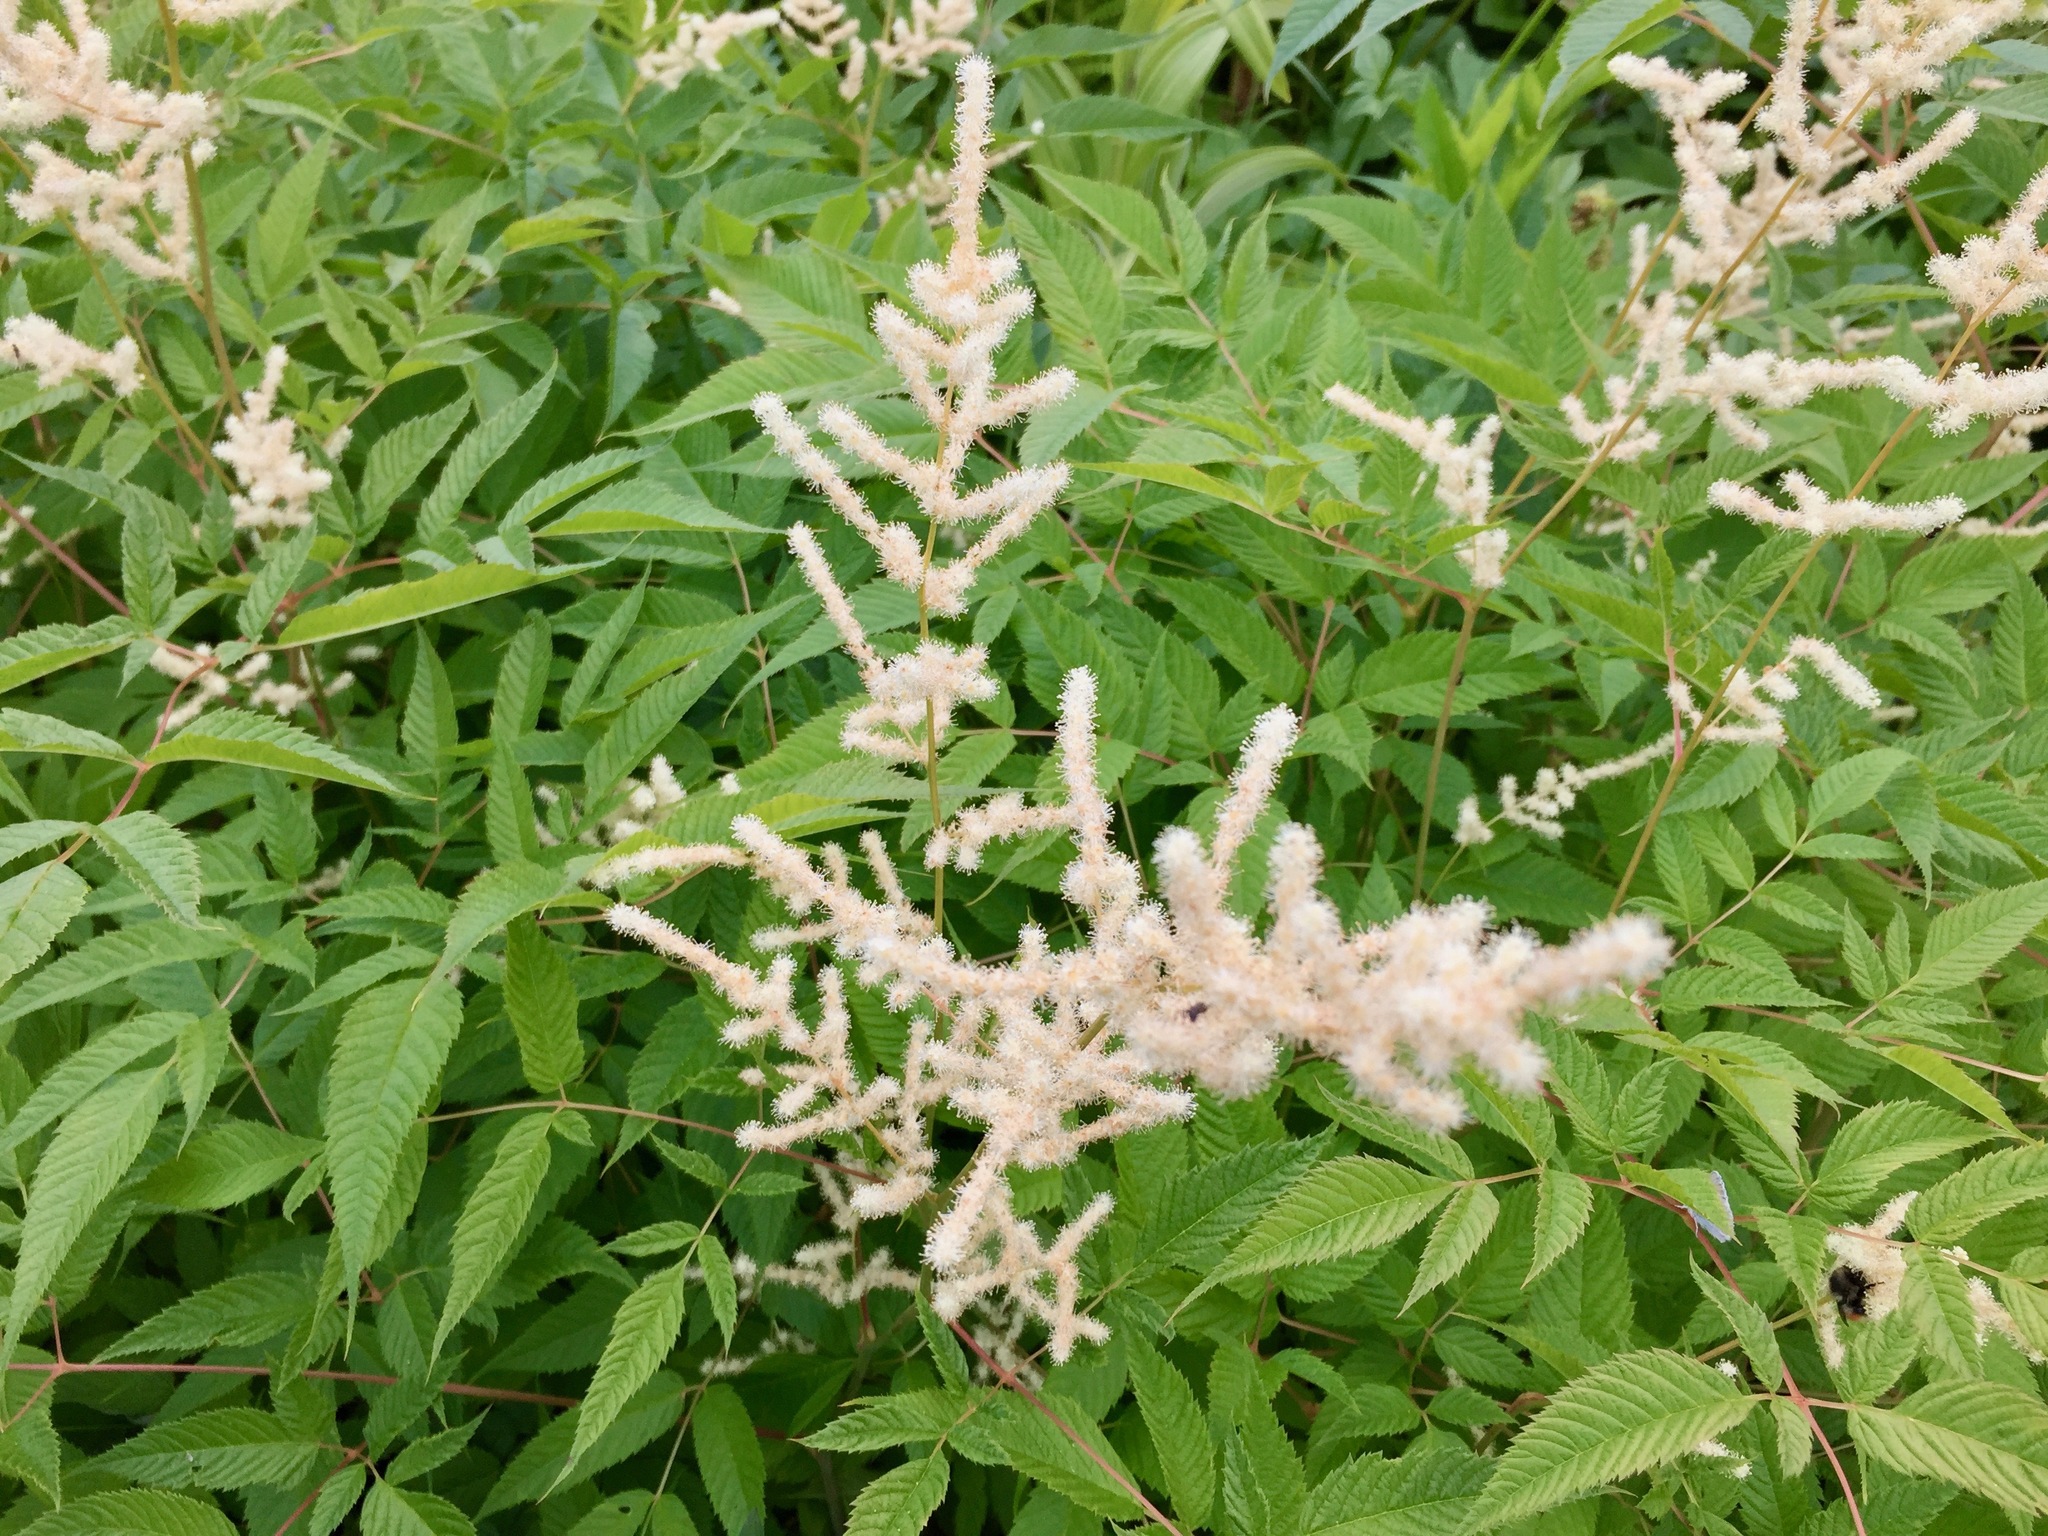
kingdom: Plantae
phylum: Tracheophyta
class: Magnoliopsida
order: Rosales
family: Rosaceae
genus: Aruncus
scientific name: Aruncus dioicus
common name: Buck's-beard
